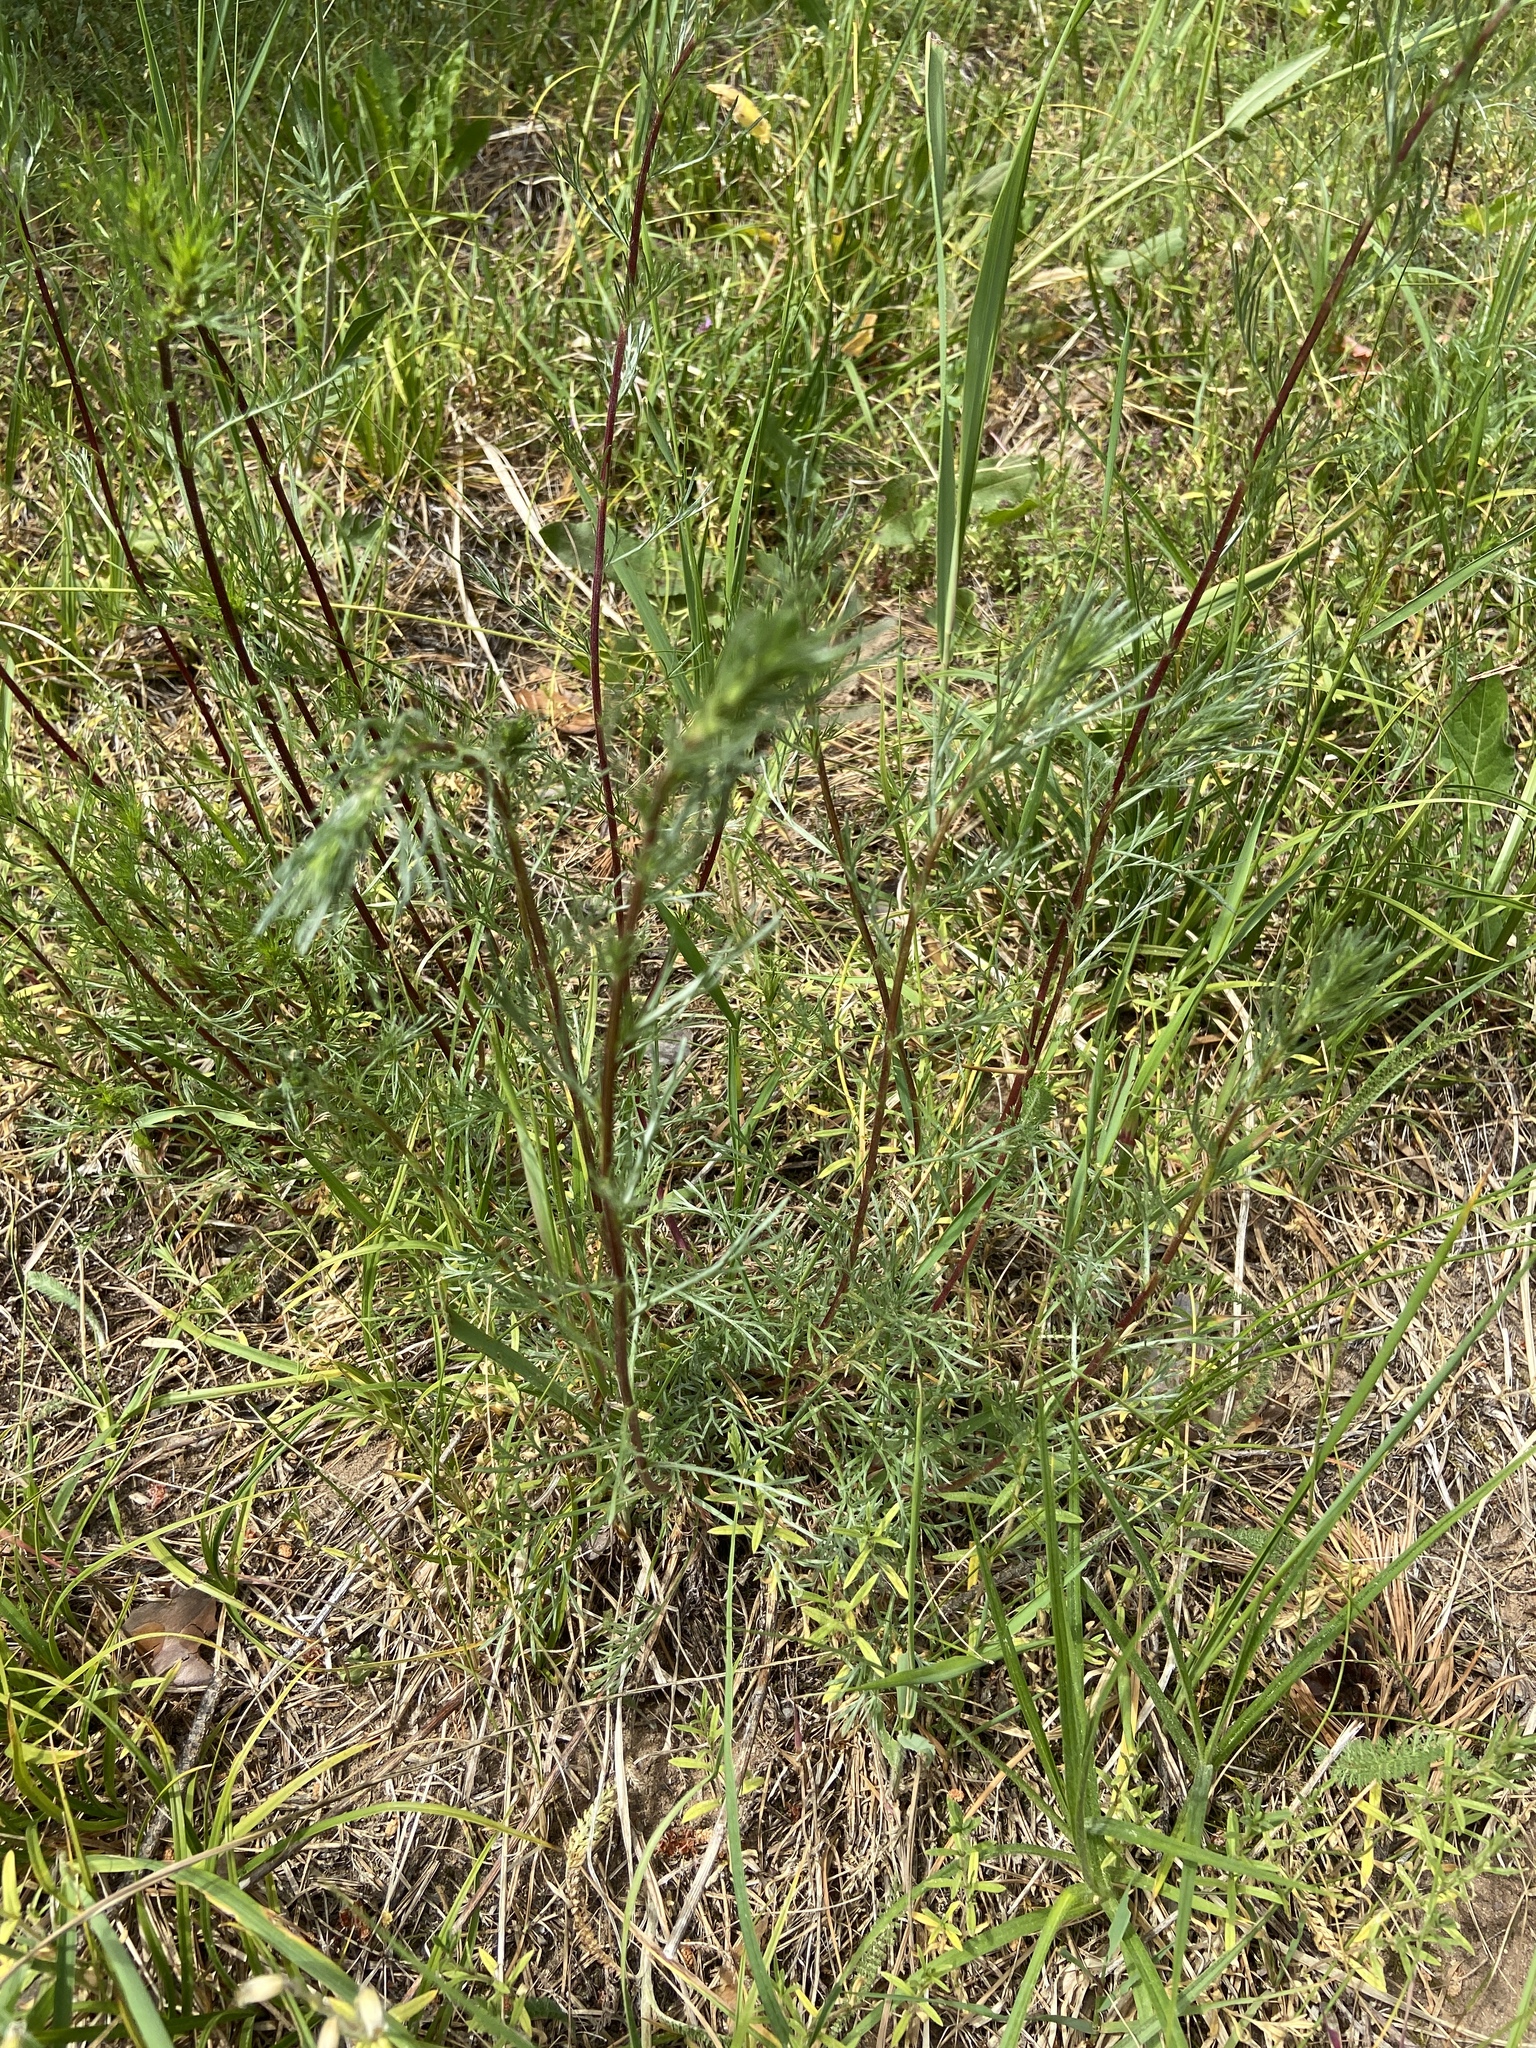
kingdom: Plantae
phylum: Tracheophyta
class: Magnoliopsida
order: Asterales
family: Asteraceae
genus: Artemisia
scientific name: Artemisia campestris
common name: Field wormwood
